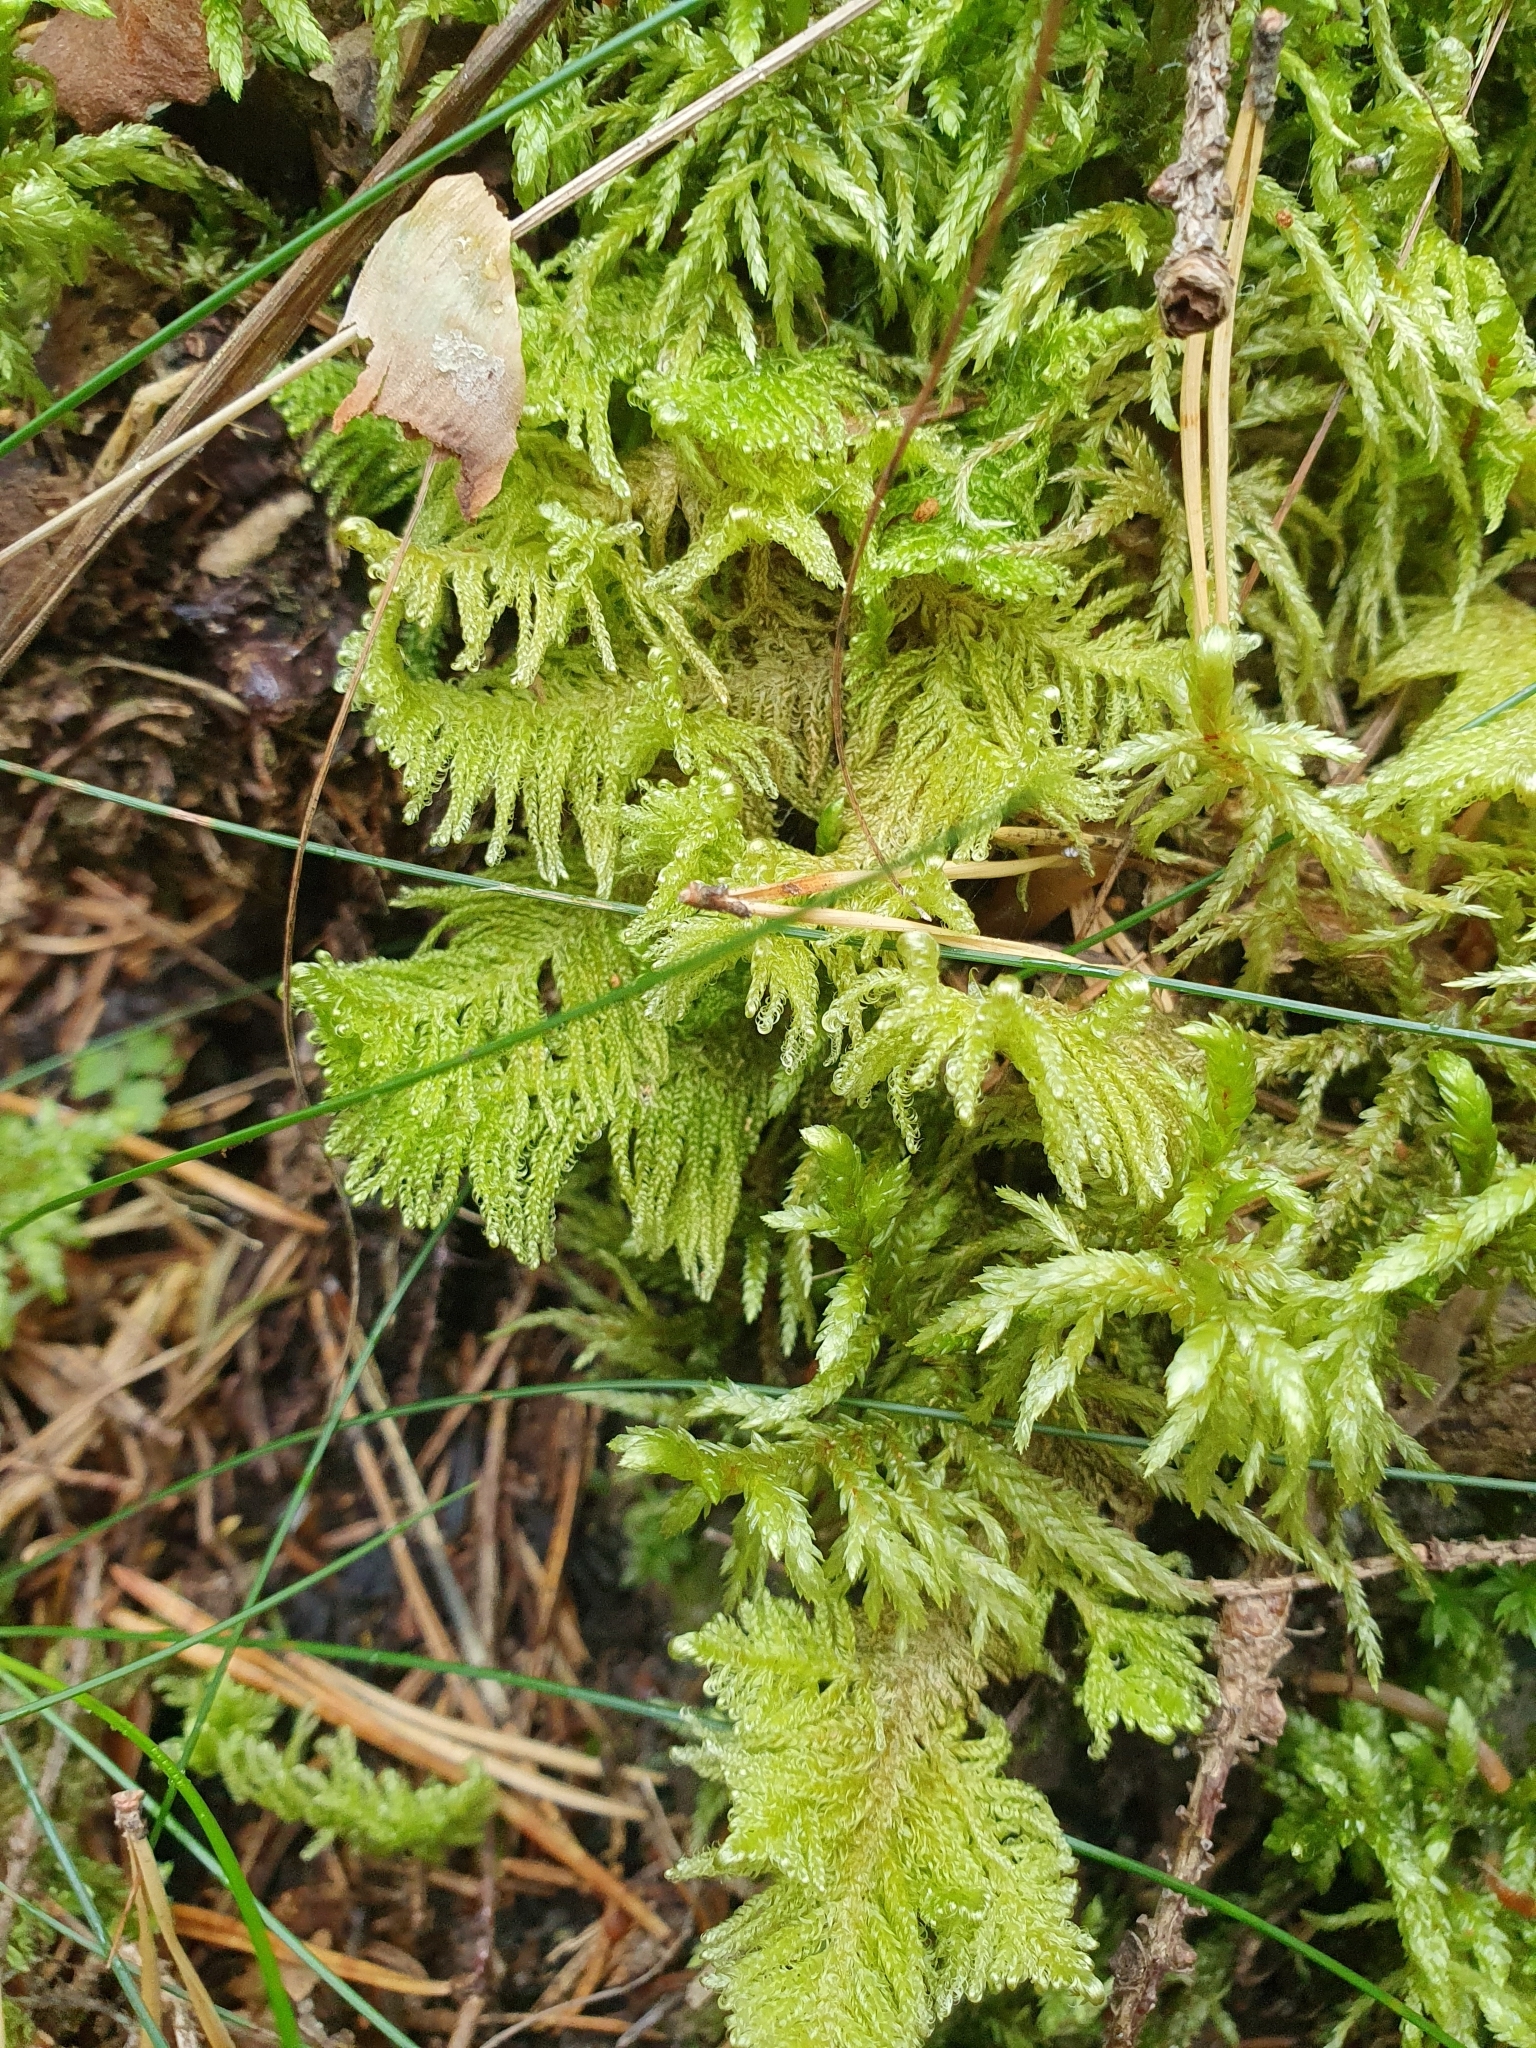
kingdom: Plantae
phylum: Bryophyta
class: Bryopsida
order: Hypnales
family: Pylaisiaceae
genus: Ptilium
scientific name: Ptilium crista-castrensis
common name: Knight's plume moss
